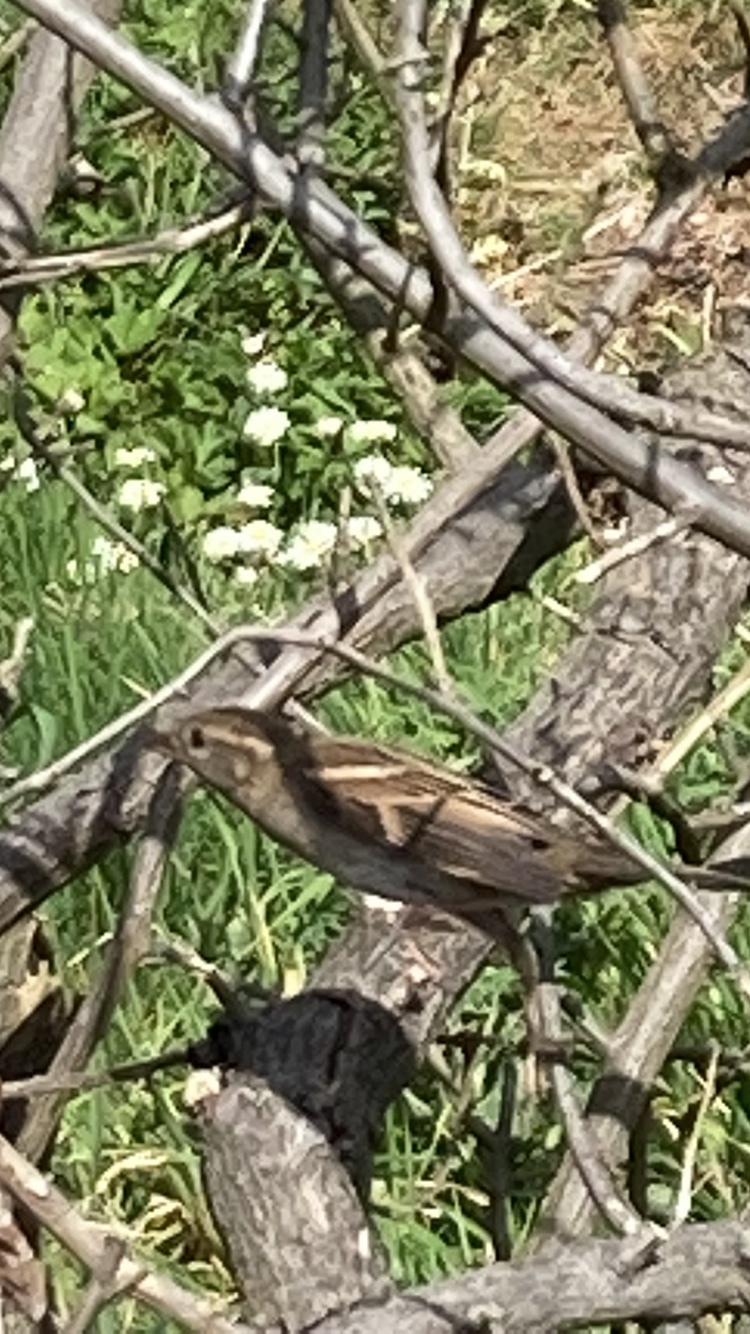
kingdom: Animalia
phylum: Chordata
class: Aves
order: Passeriformes
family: Passeridae
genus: Passer
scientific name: Passer domesticus
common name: House sparrow
